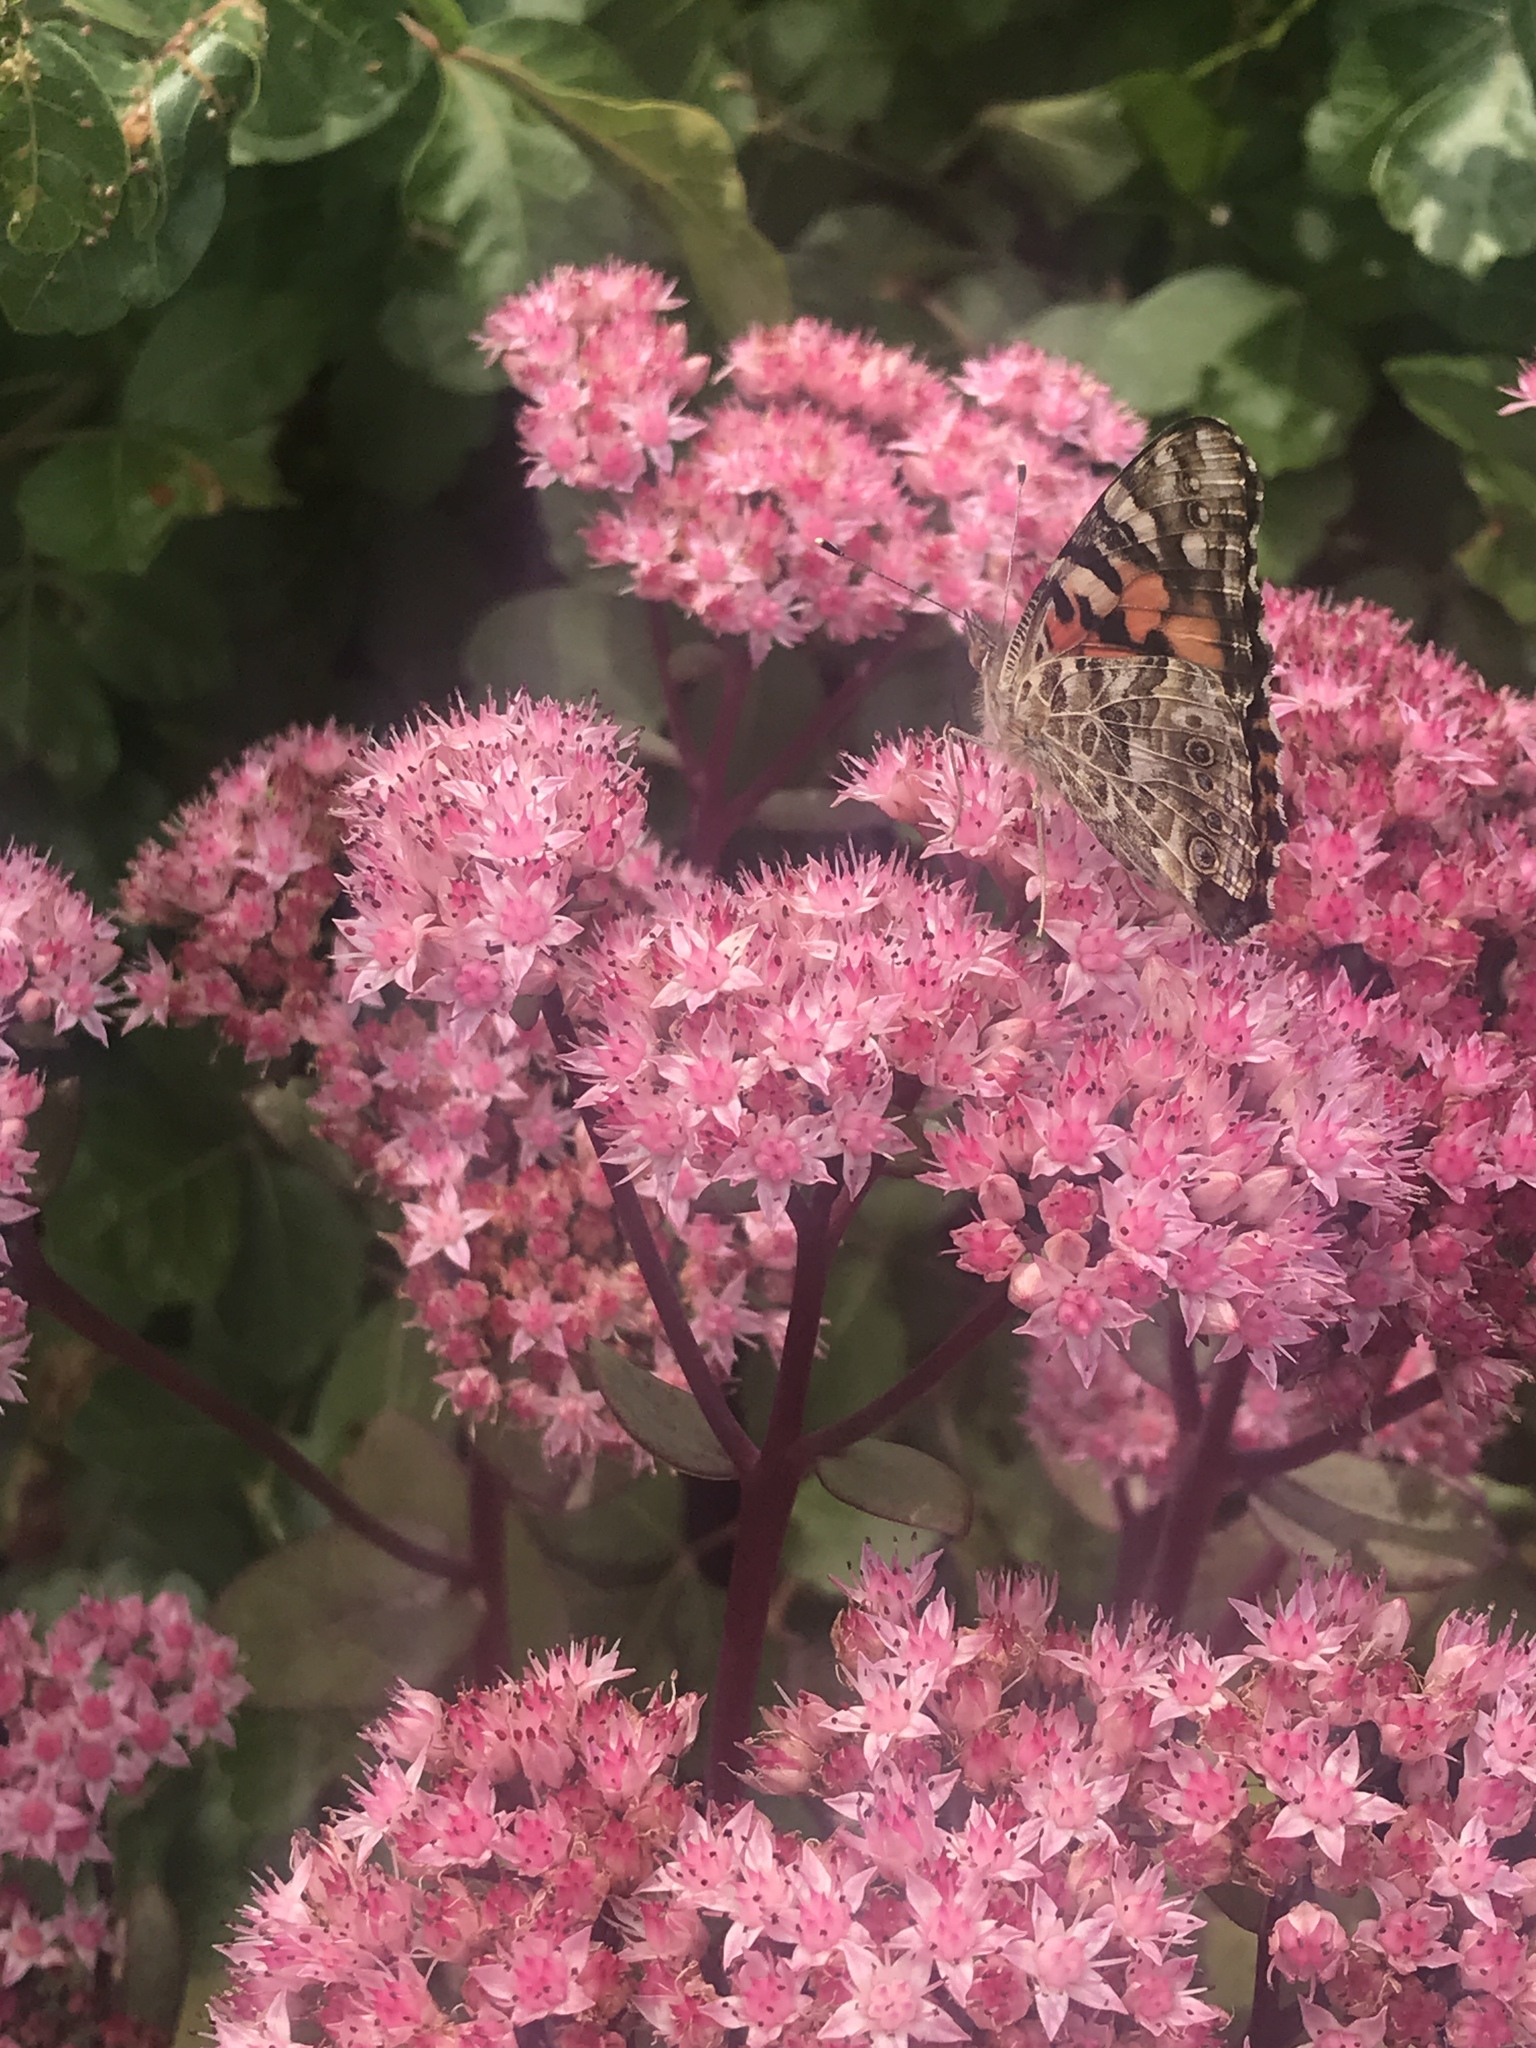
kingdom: Animalia
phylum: Arthropoda
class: Insecta
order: Lepidoptera
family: Nymphalidae
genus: Vanessa
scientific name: Vanessa cardui
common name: Painted lady
